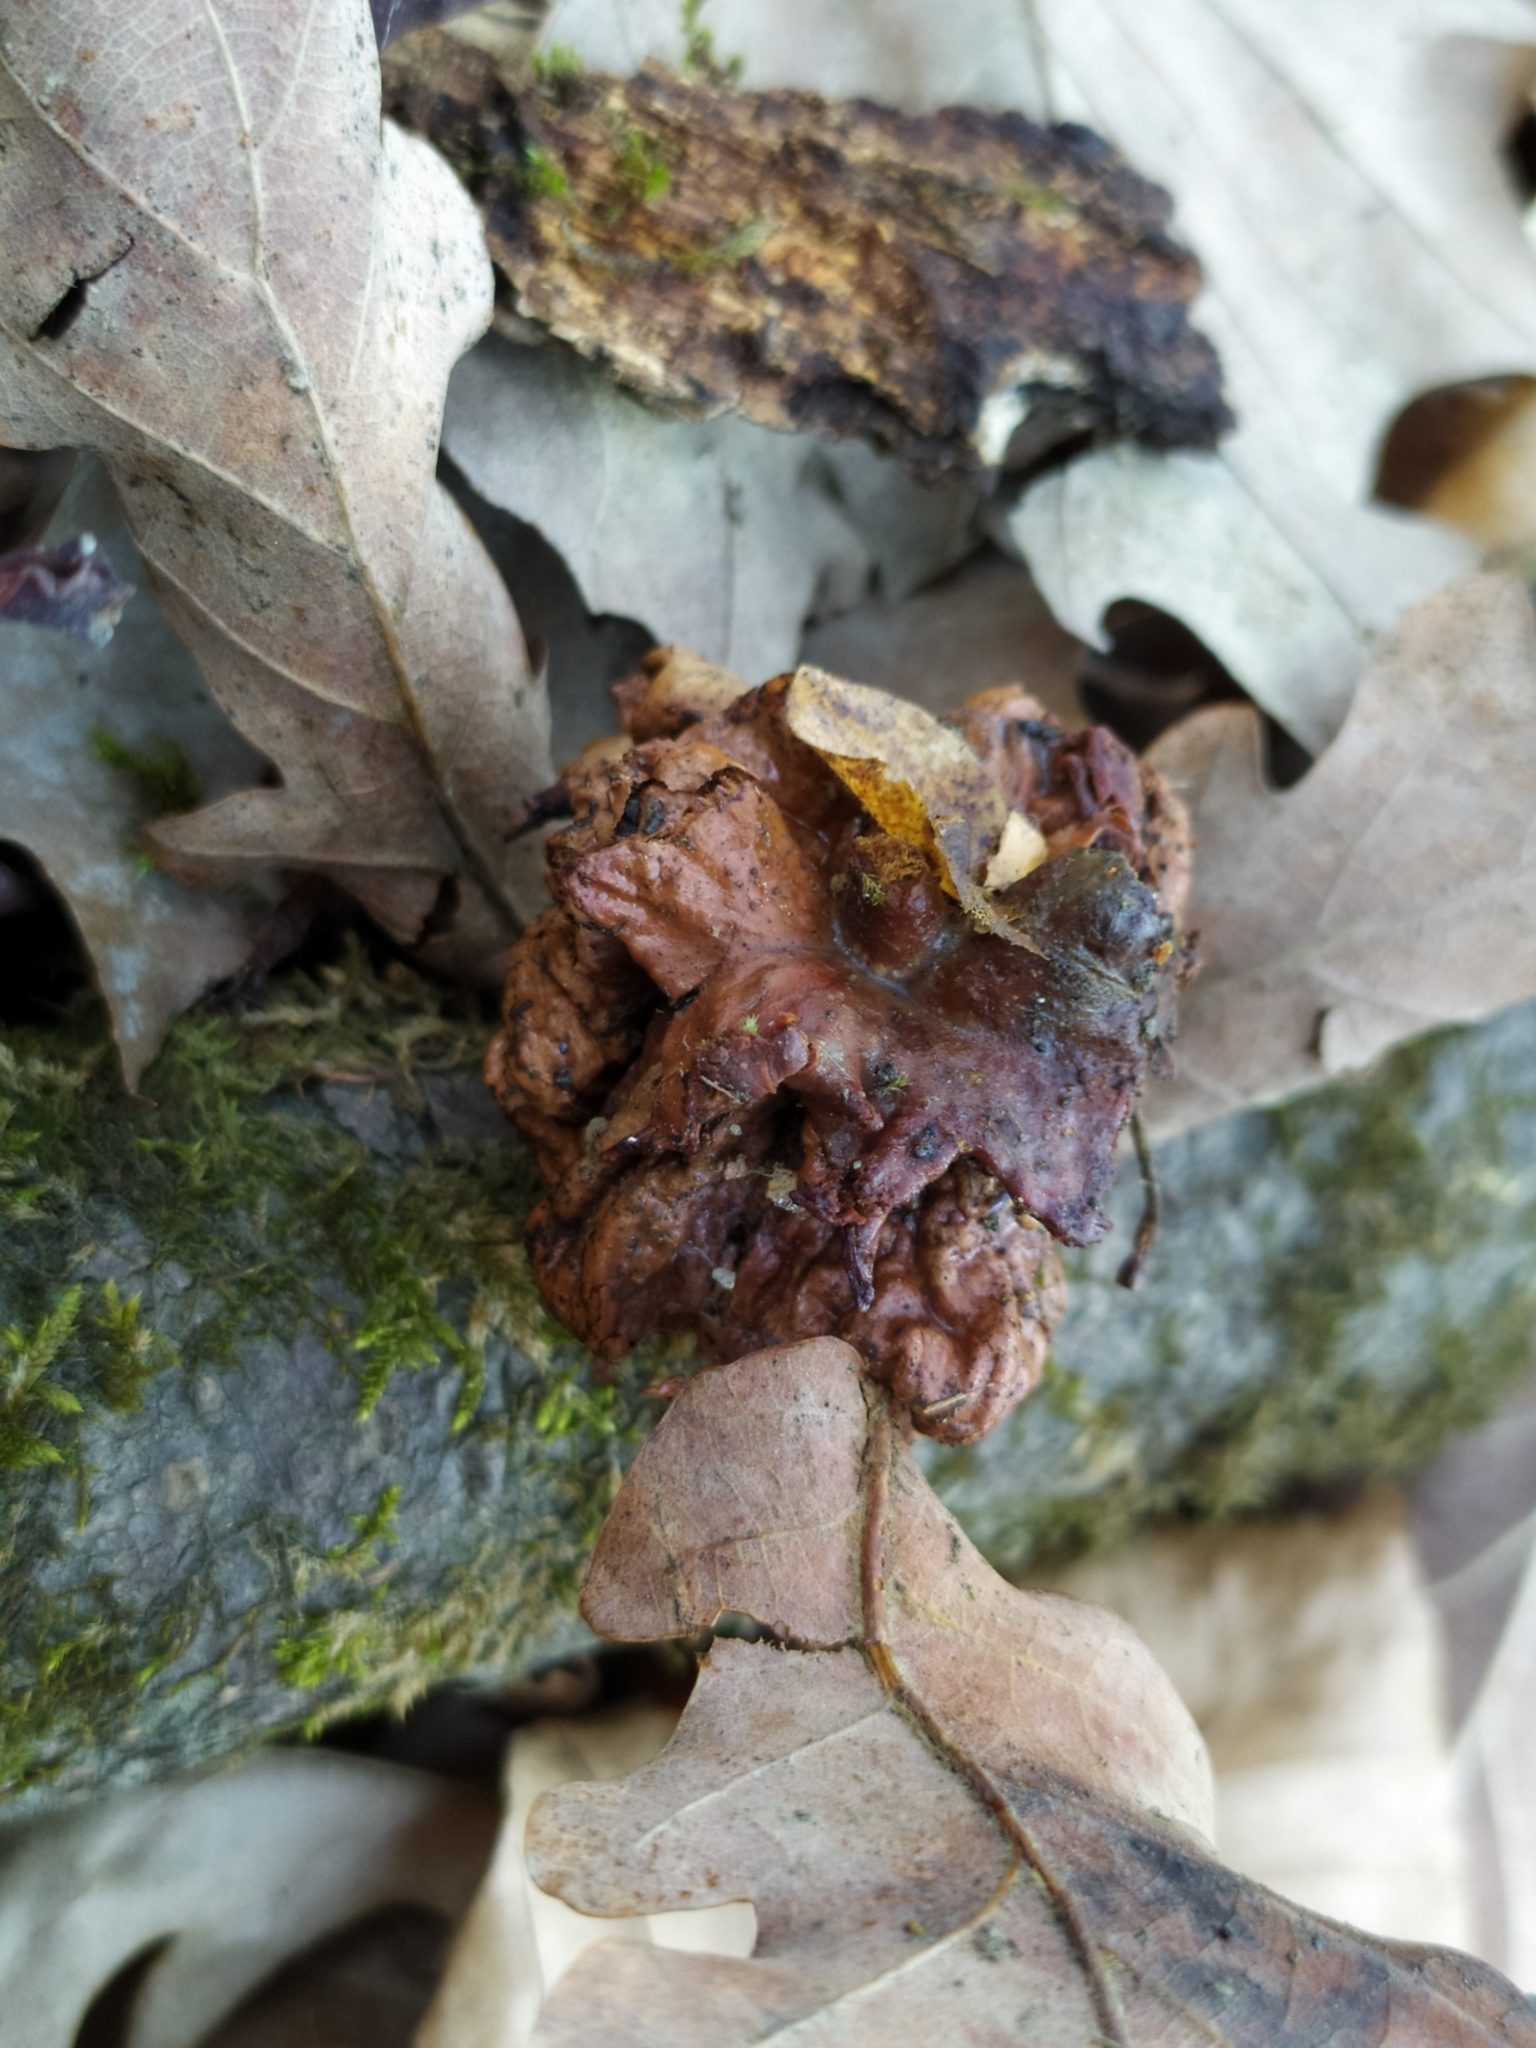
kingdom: Animalia
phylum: Arthropoda
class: Insecta
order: Hymenoptera
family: Cynipidae
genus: Andricus
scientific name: Andricus dentimitratus
